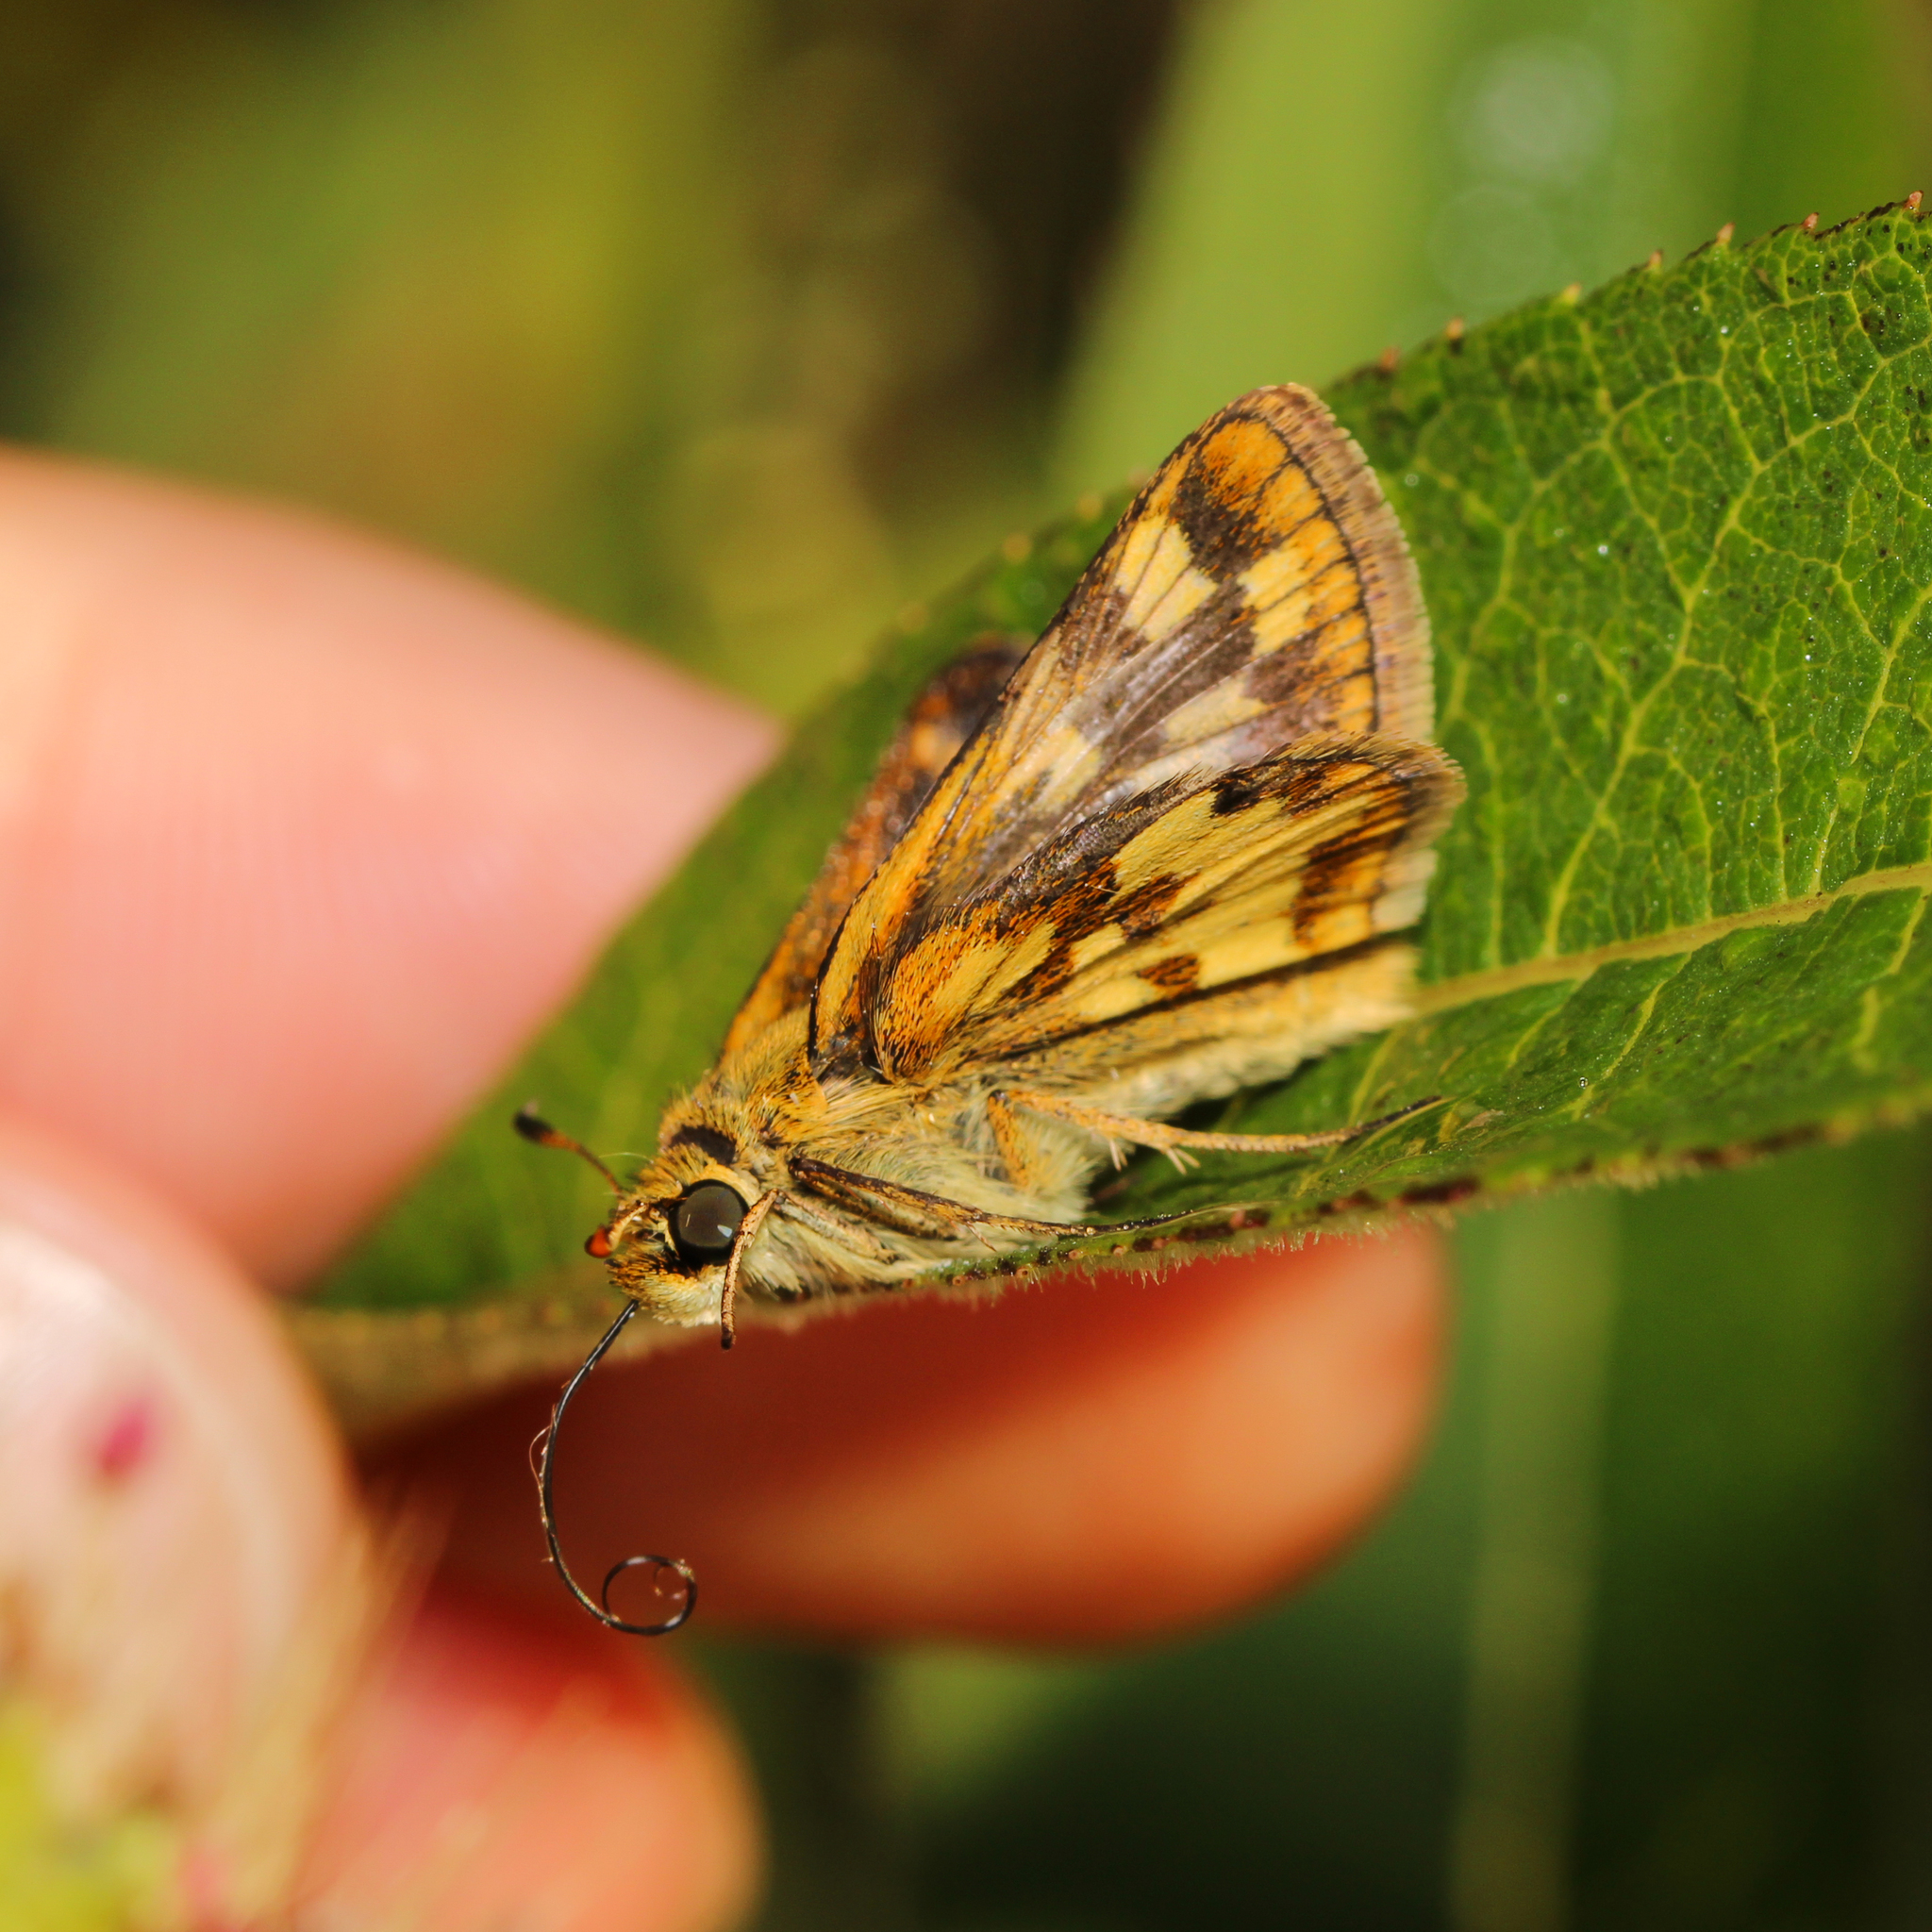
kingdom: Animalia
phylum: Arthropoda
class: Insecta
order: Lepidoptera
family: Hesperiidae
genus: Polites
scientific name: Polites coras
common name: Peck's skipper
